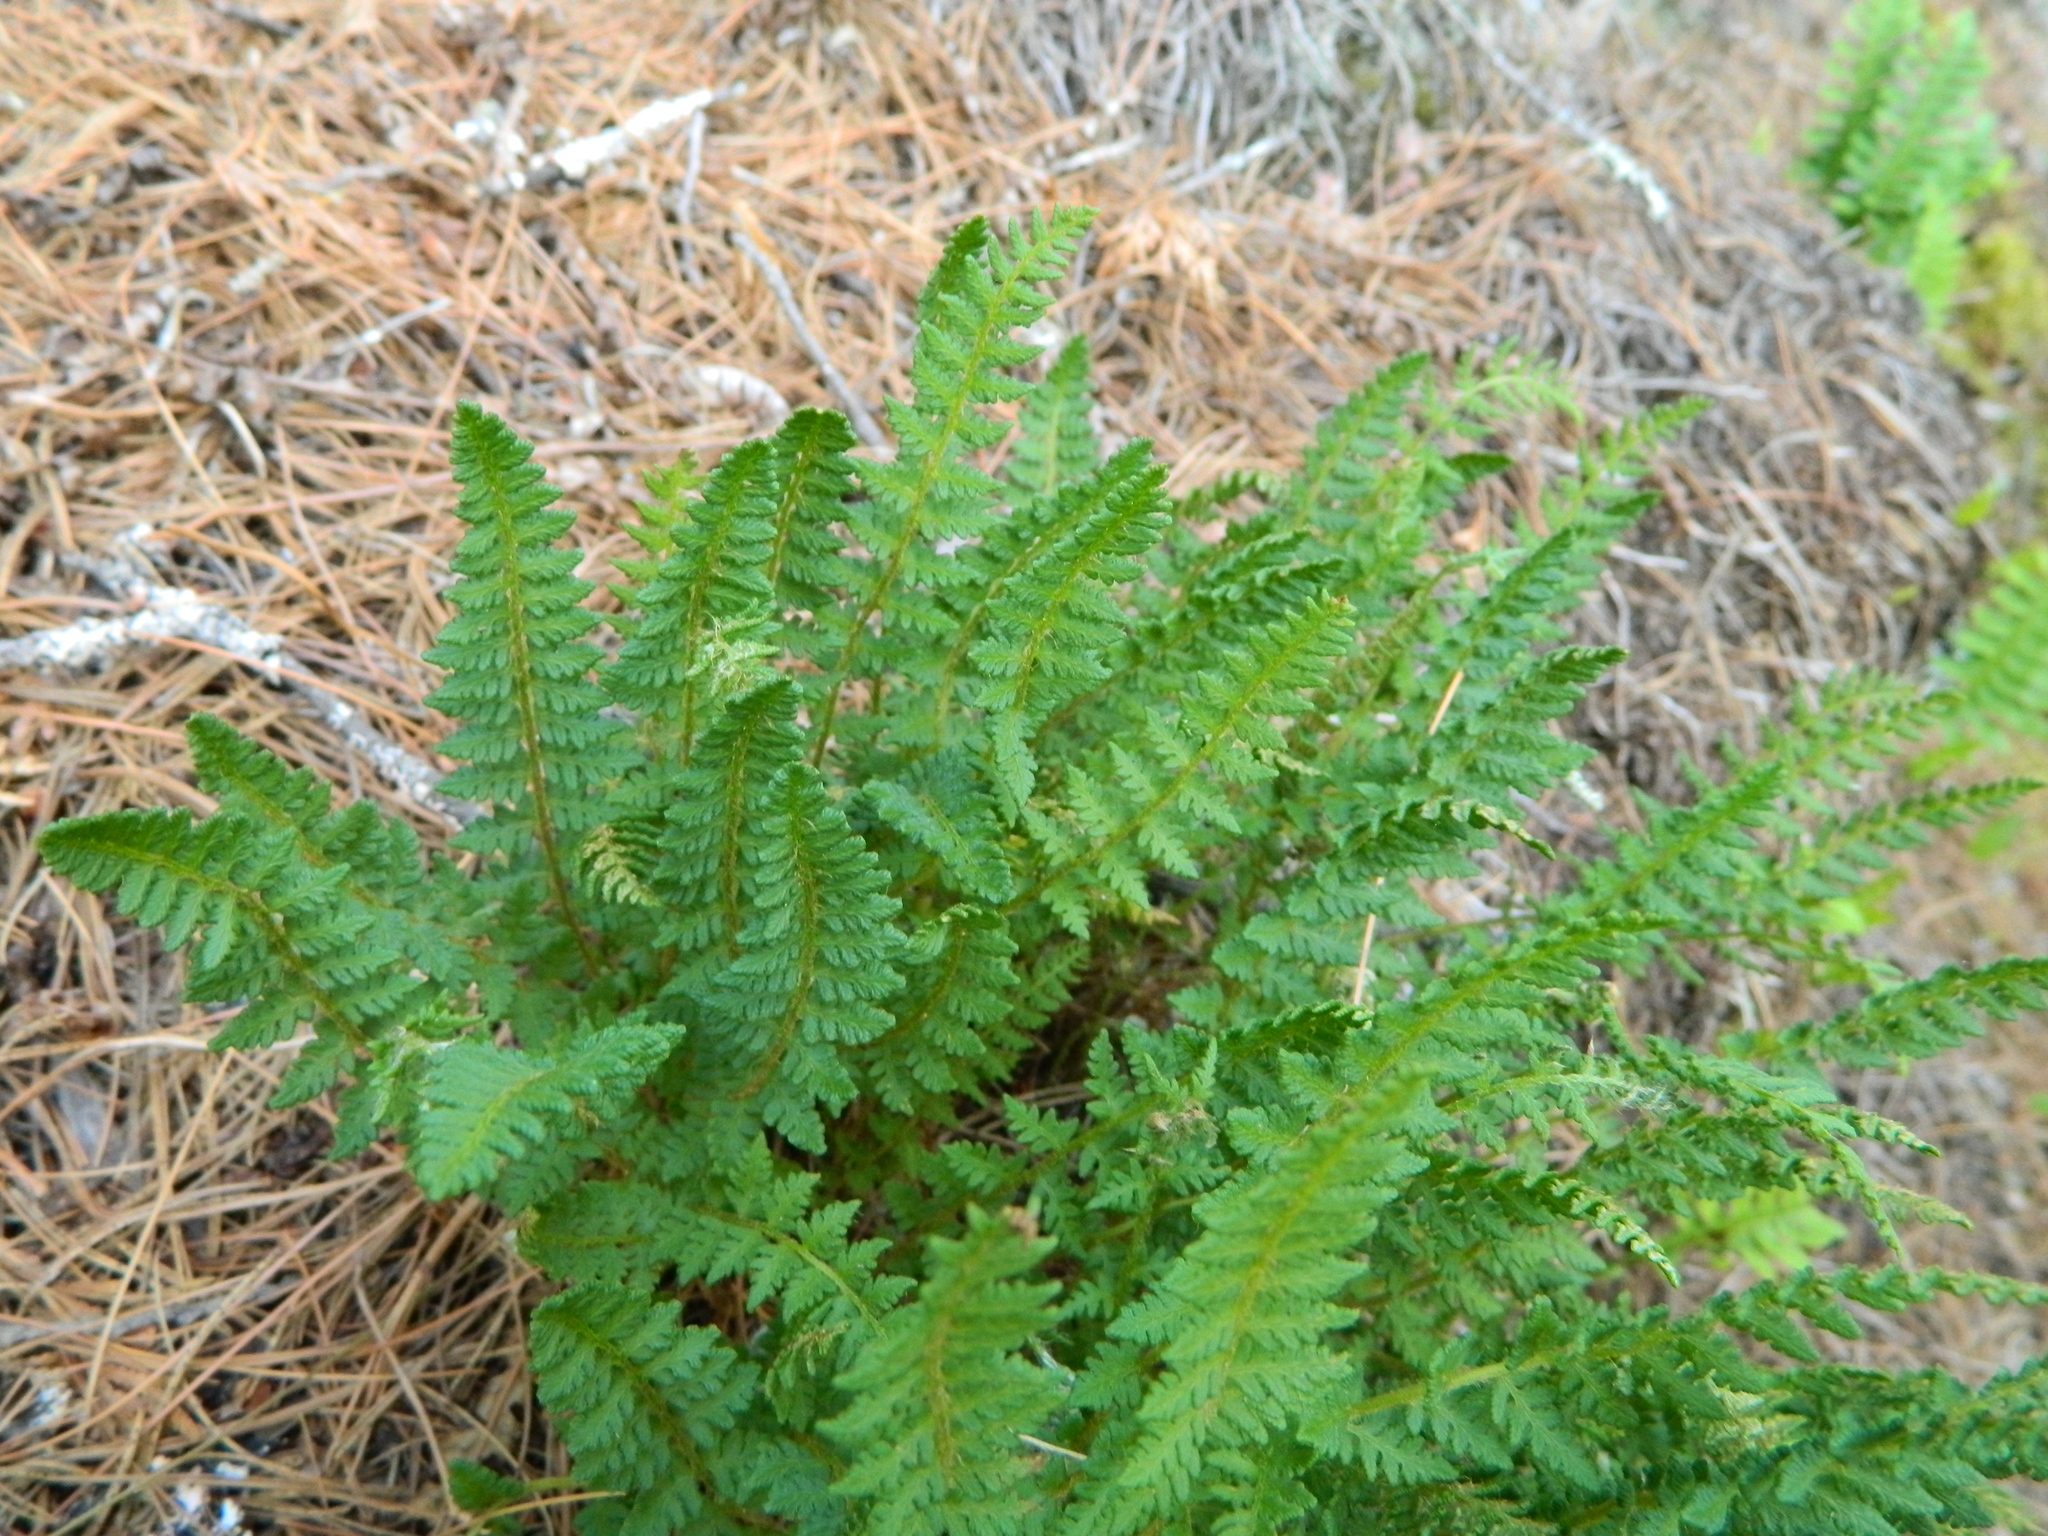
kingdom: Plantae
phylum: Tracheophyta
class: Polypodiopsida
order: Polypodiales
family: Woodsiaceae
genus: Woodsia
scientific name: Woodsia ilvensis
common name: Fragrant woodsia
